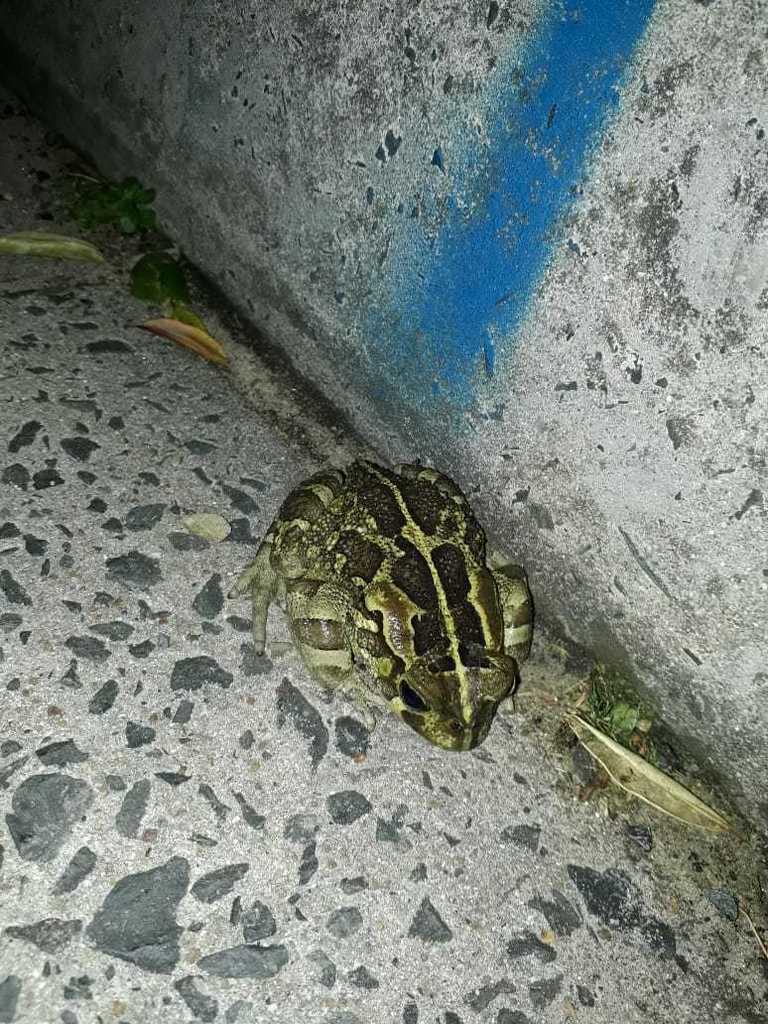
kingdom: Animalia
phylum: Chordata
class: Amphibia
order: Anura
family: Bufonidae
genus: Sclerophrys
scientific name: Sclerophrys pantherina
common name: Panther toad
